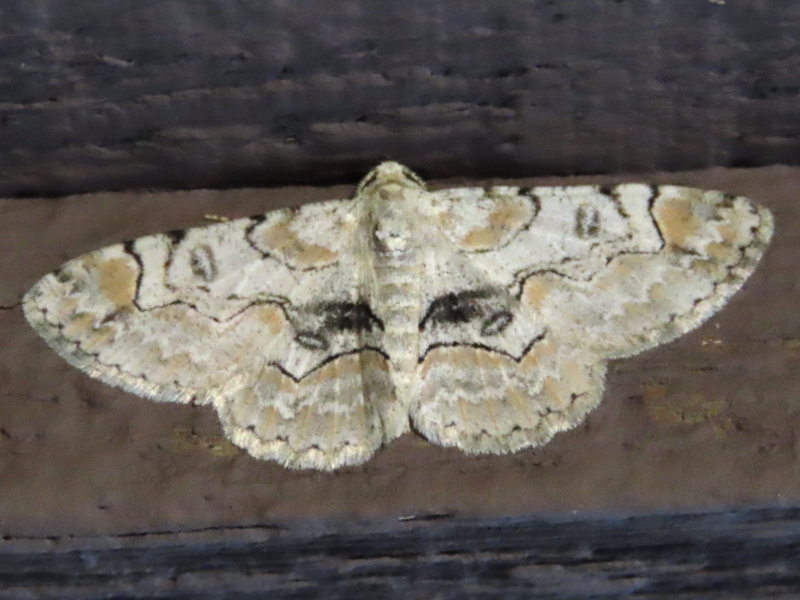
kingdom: Animalia
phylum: Arthropoda
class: Insecta
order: Lepidoptera
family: Geometridae
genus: Iridopsis
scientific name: Iridopsis larvaria
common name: Bent-line gray
